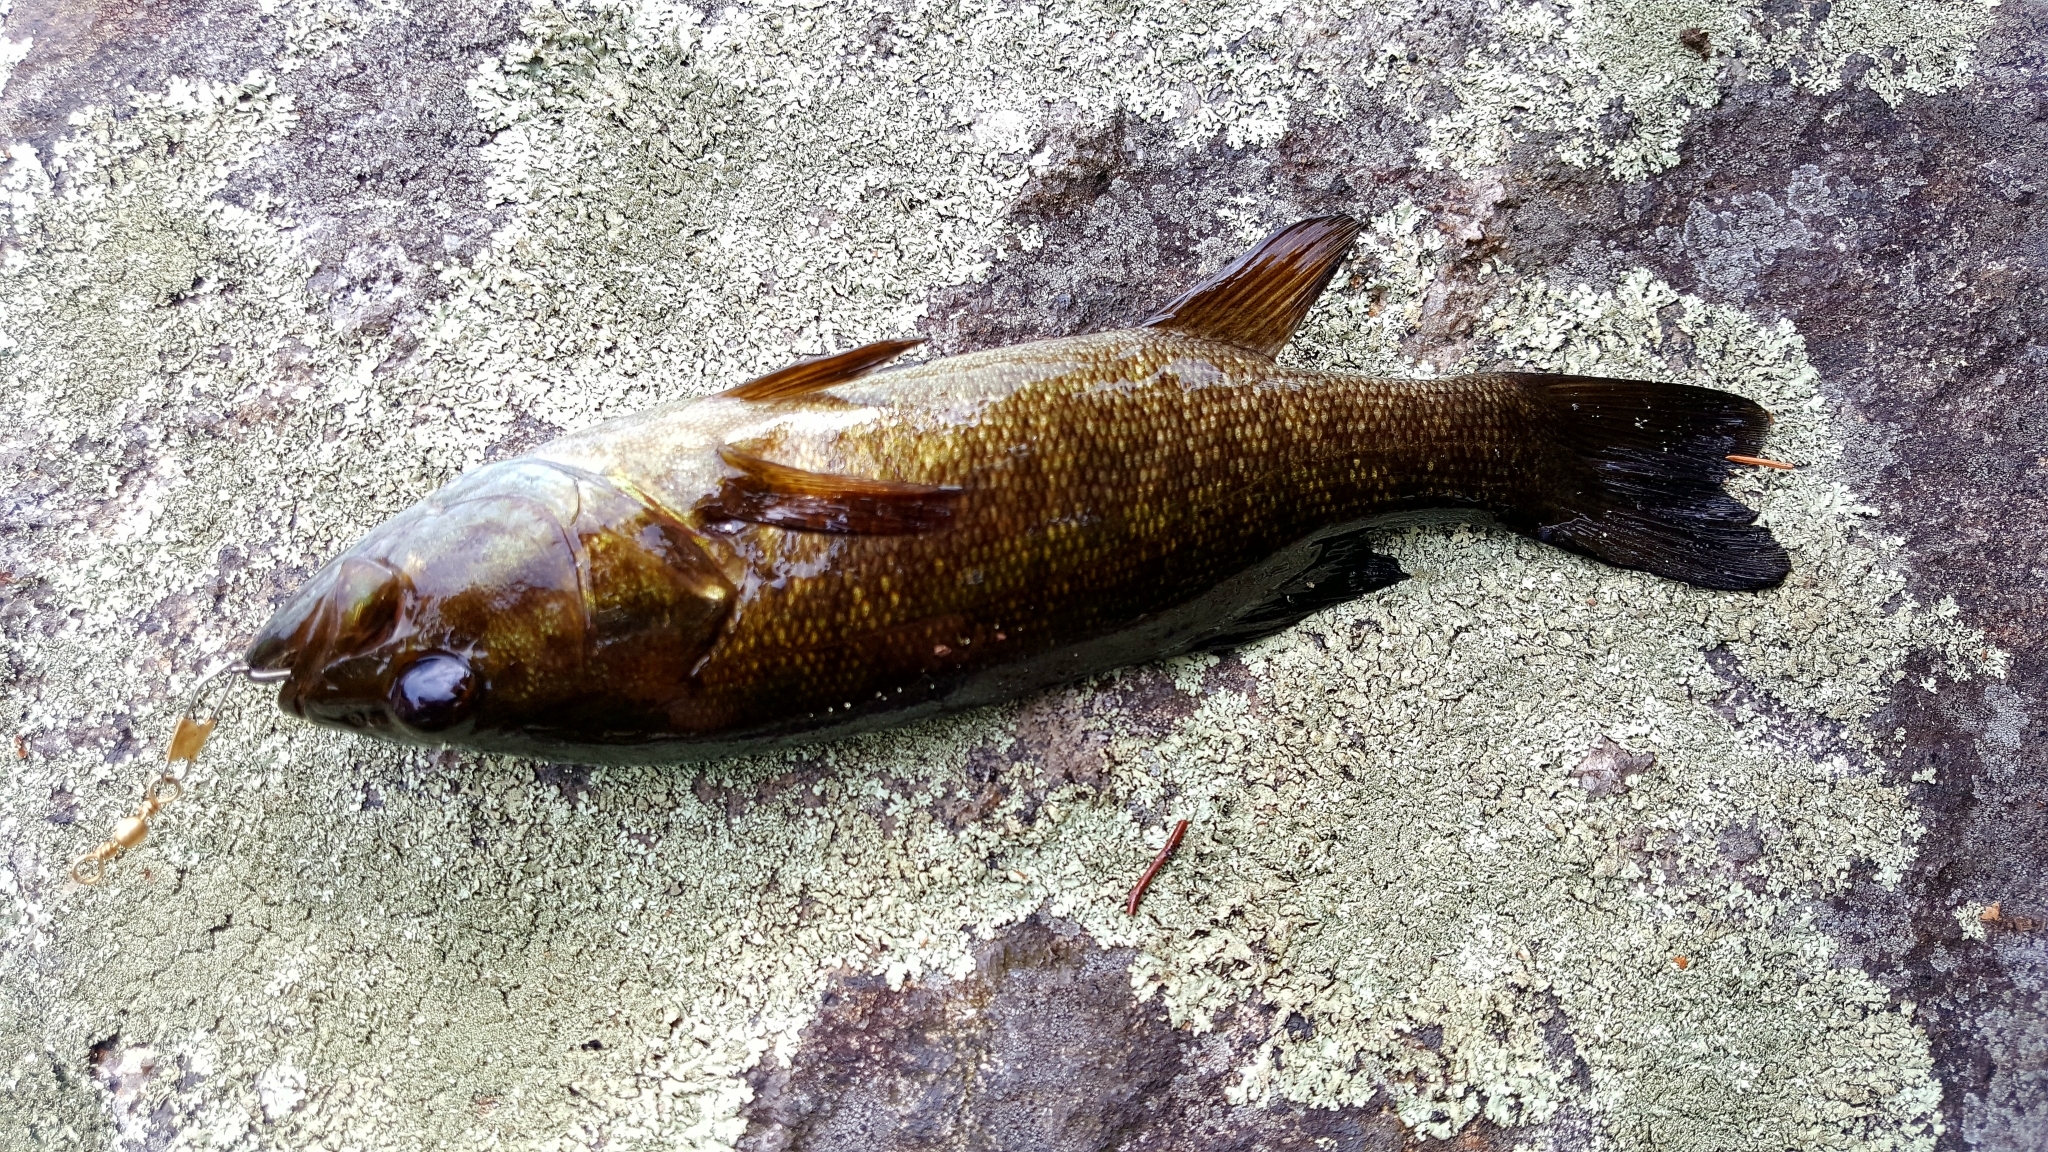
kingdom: Animalia
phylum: Chordata
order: Perciformes
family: Centrarchidae
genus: Micropterus
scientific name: Micropterus dolomieu
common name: Smallmouth bass
